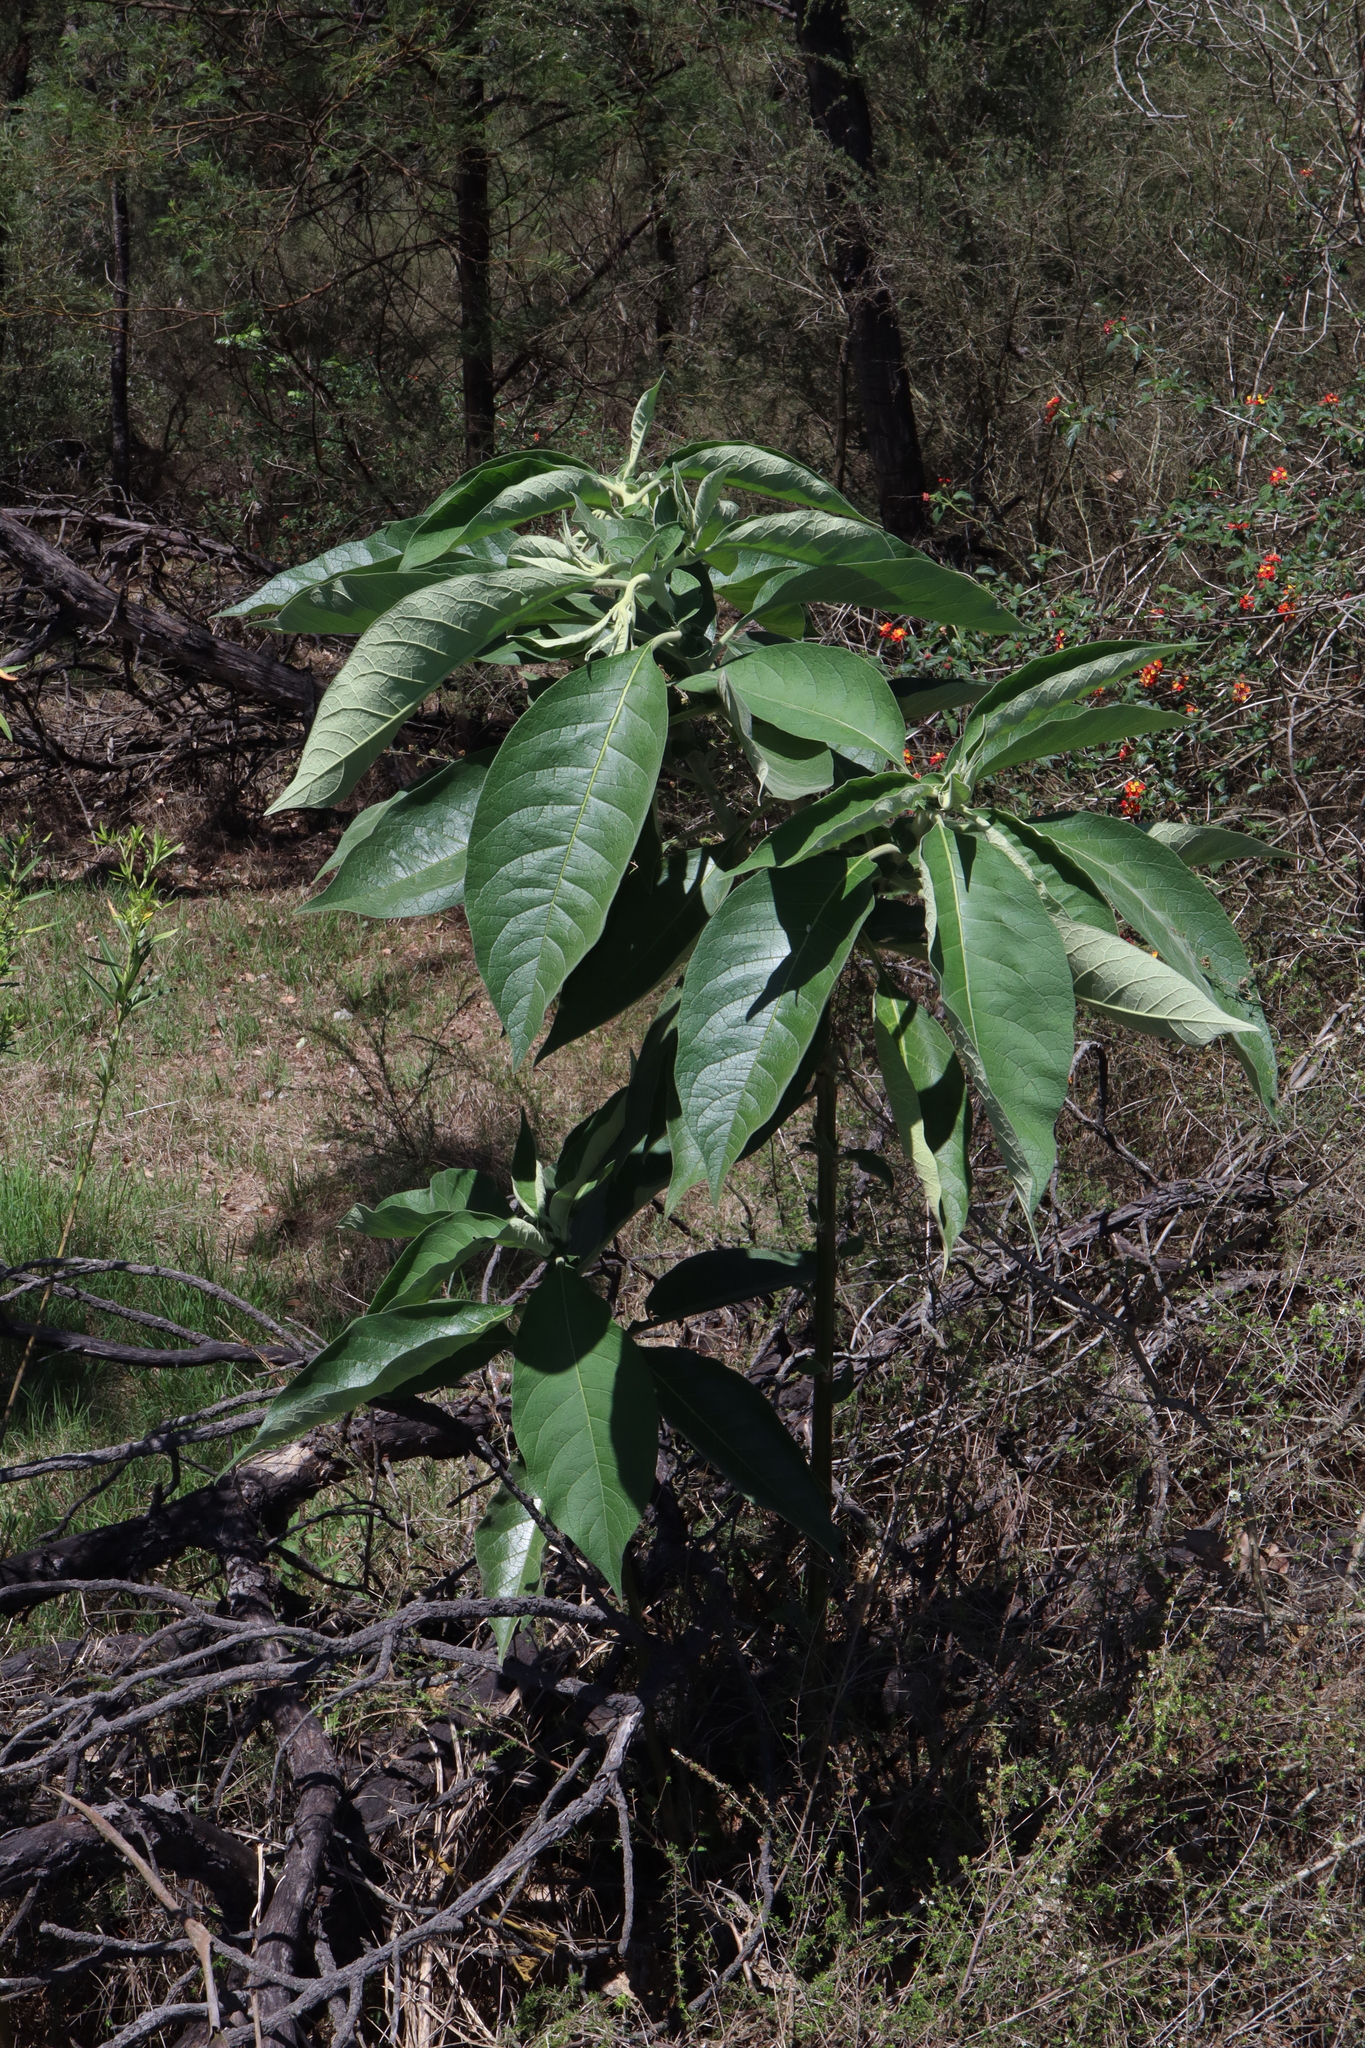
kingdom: Plantae
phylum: Tracheophyta
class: Magnoliopsida
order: Solanales
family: Solanaceae
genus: Solanum
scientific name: Solanum mauritianum
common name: Earleaf nightshade
